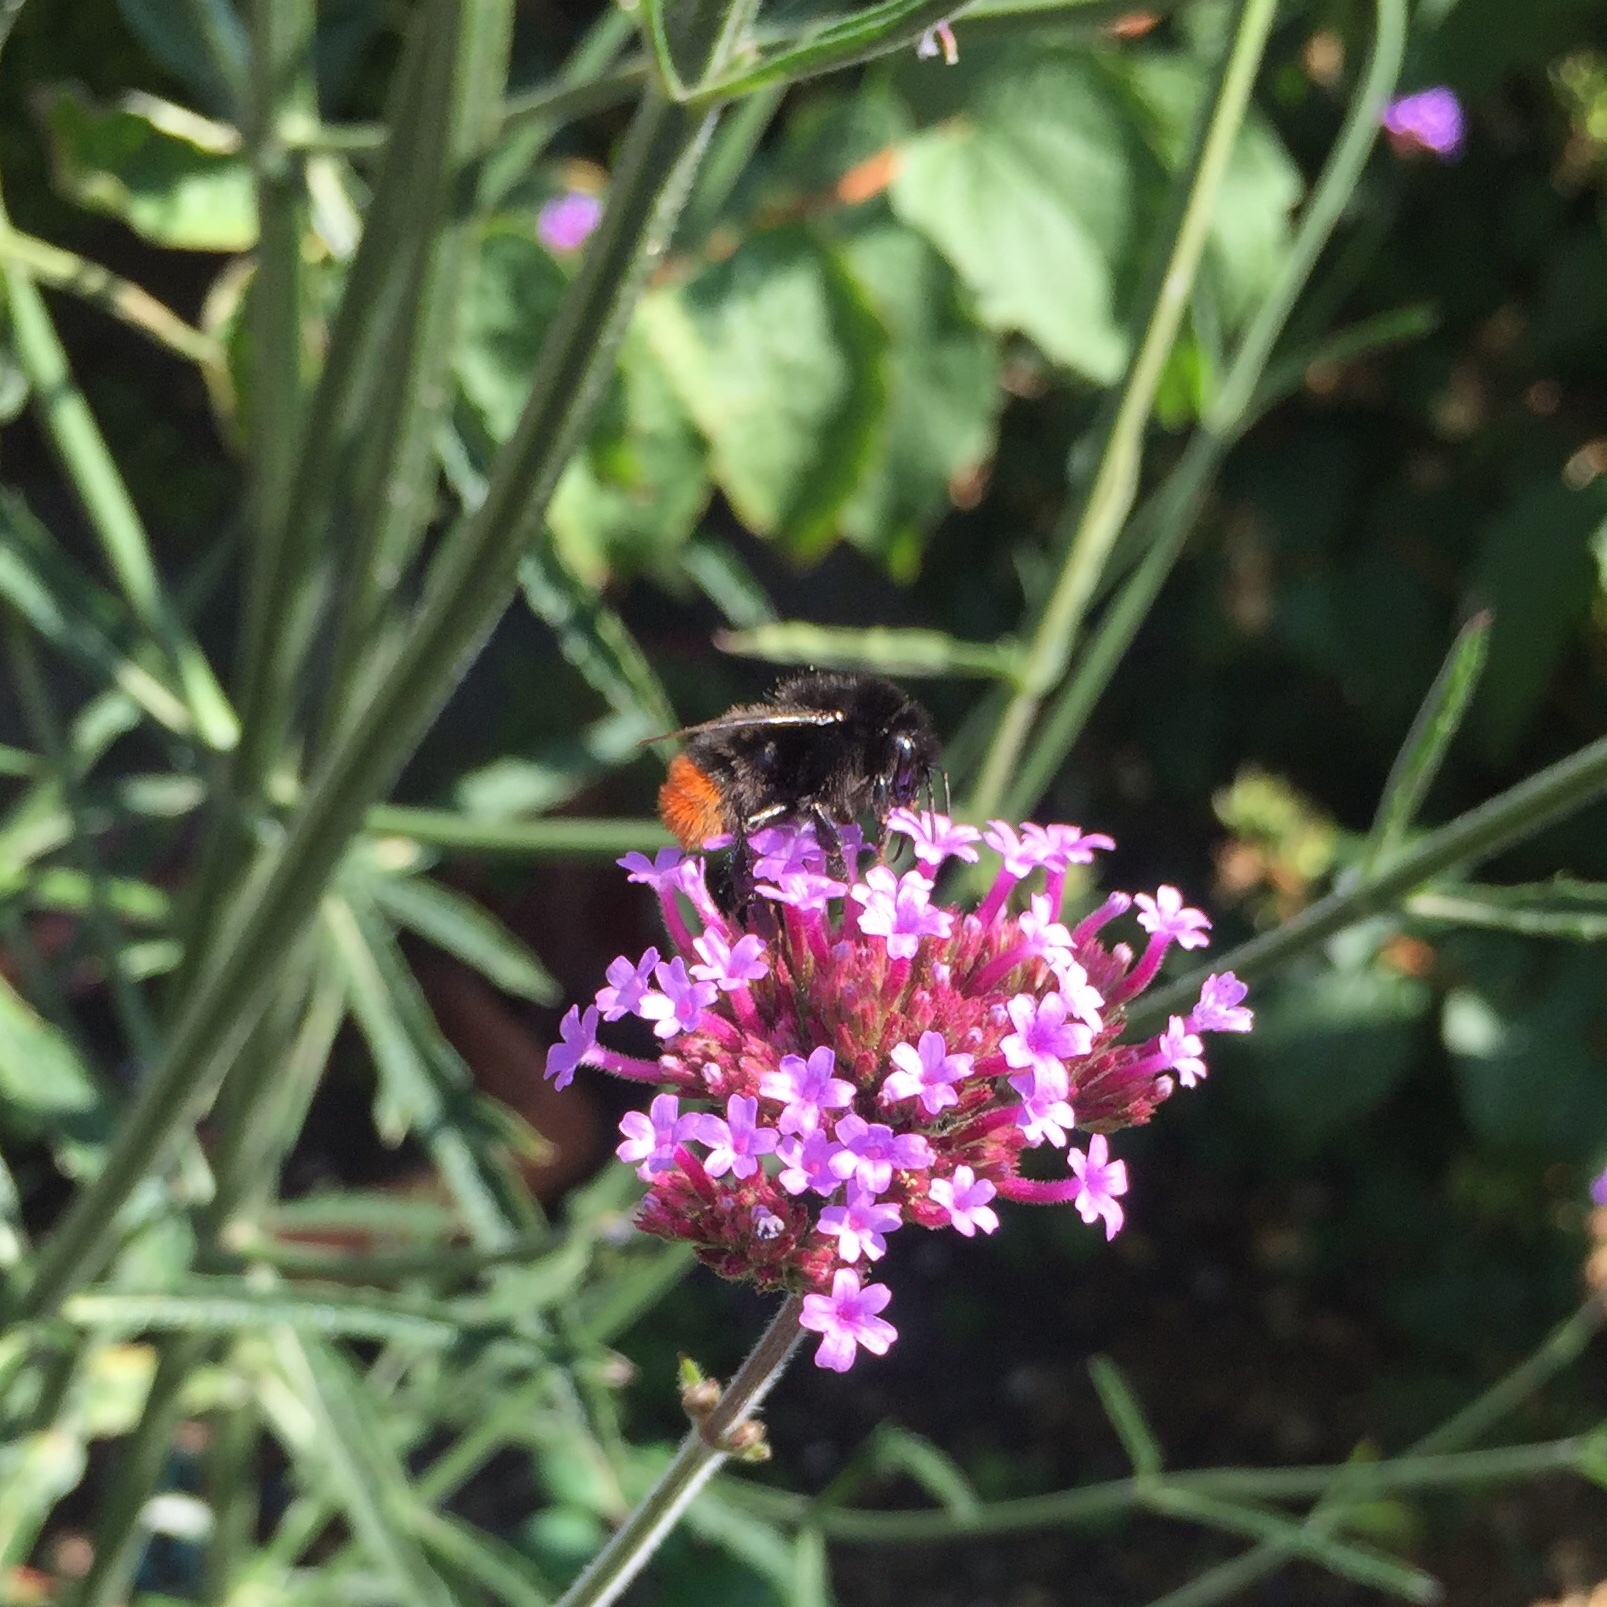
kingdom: Animalia
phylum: Arthropoda
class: Insecta
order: Hymenoptera
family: Apidae
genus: Bombus
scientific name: Bombus lapidarius
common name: Large red-tailed humble-bee
